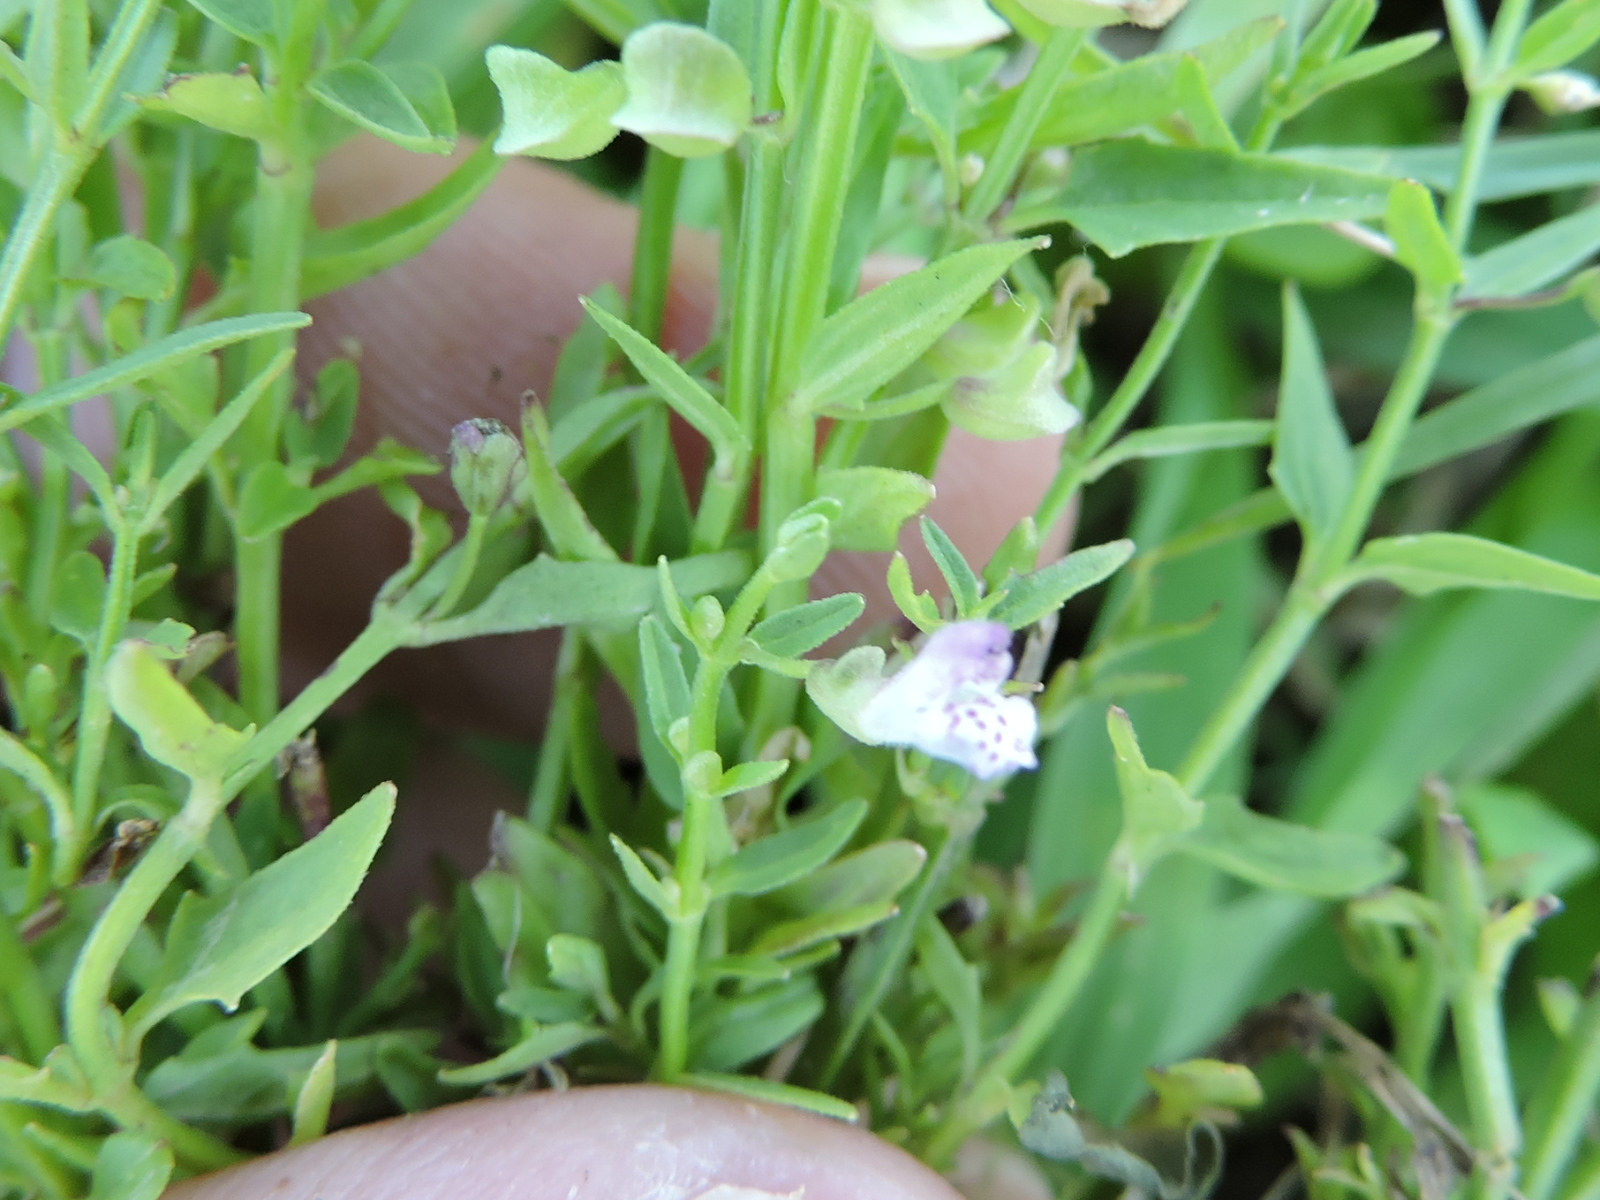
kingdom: Plantae
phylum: Tracheophyta
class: Magnoliopsida
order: Lamiales
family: Lamiaceae
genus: Scutellaria
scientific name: Scutellaria racemosa
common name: South american skullcap
